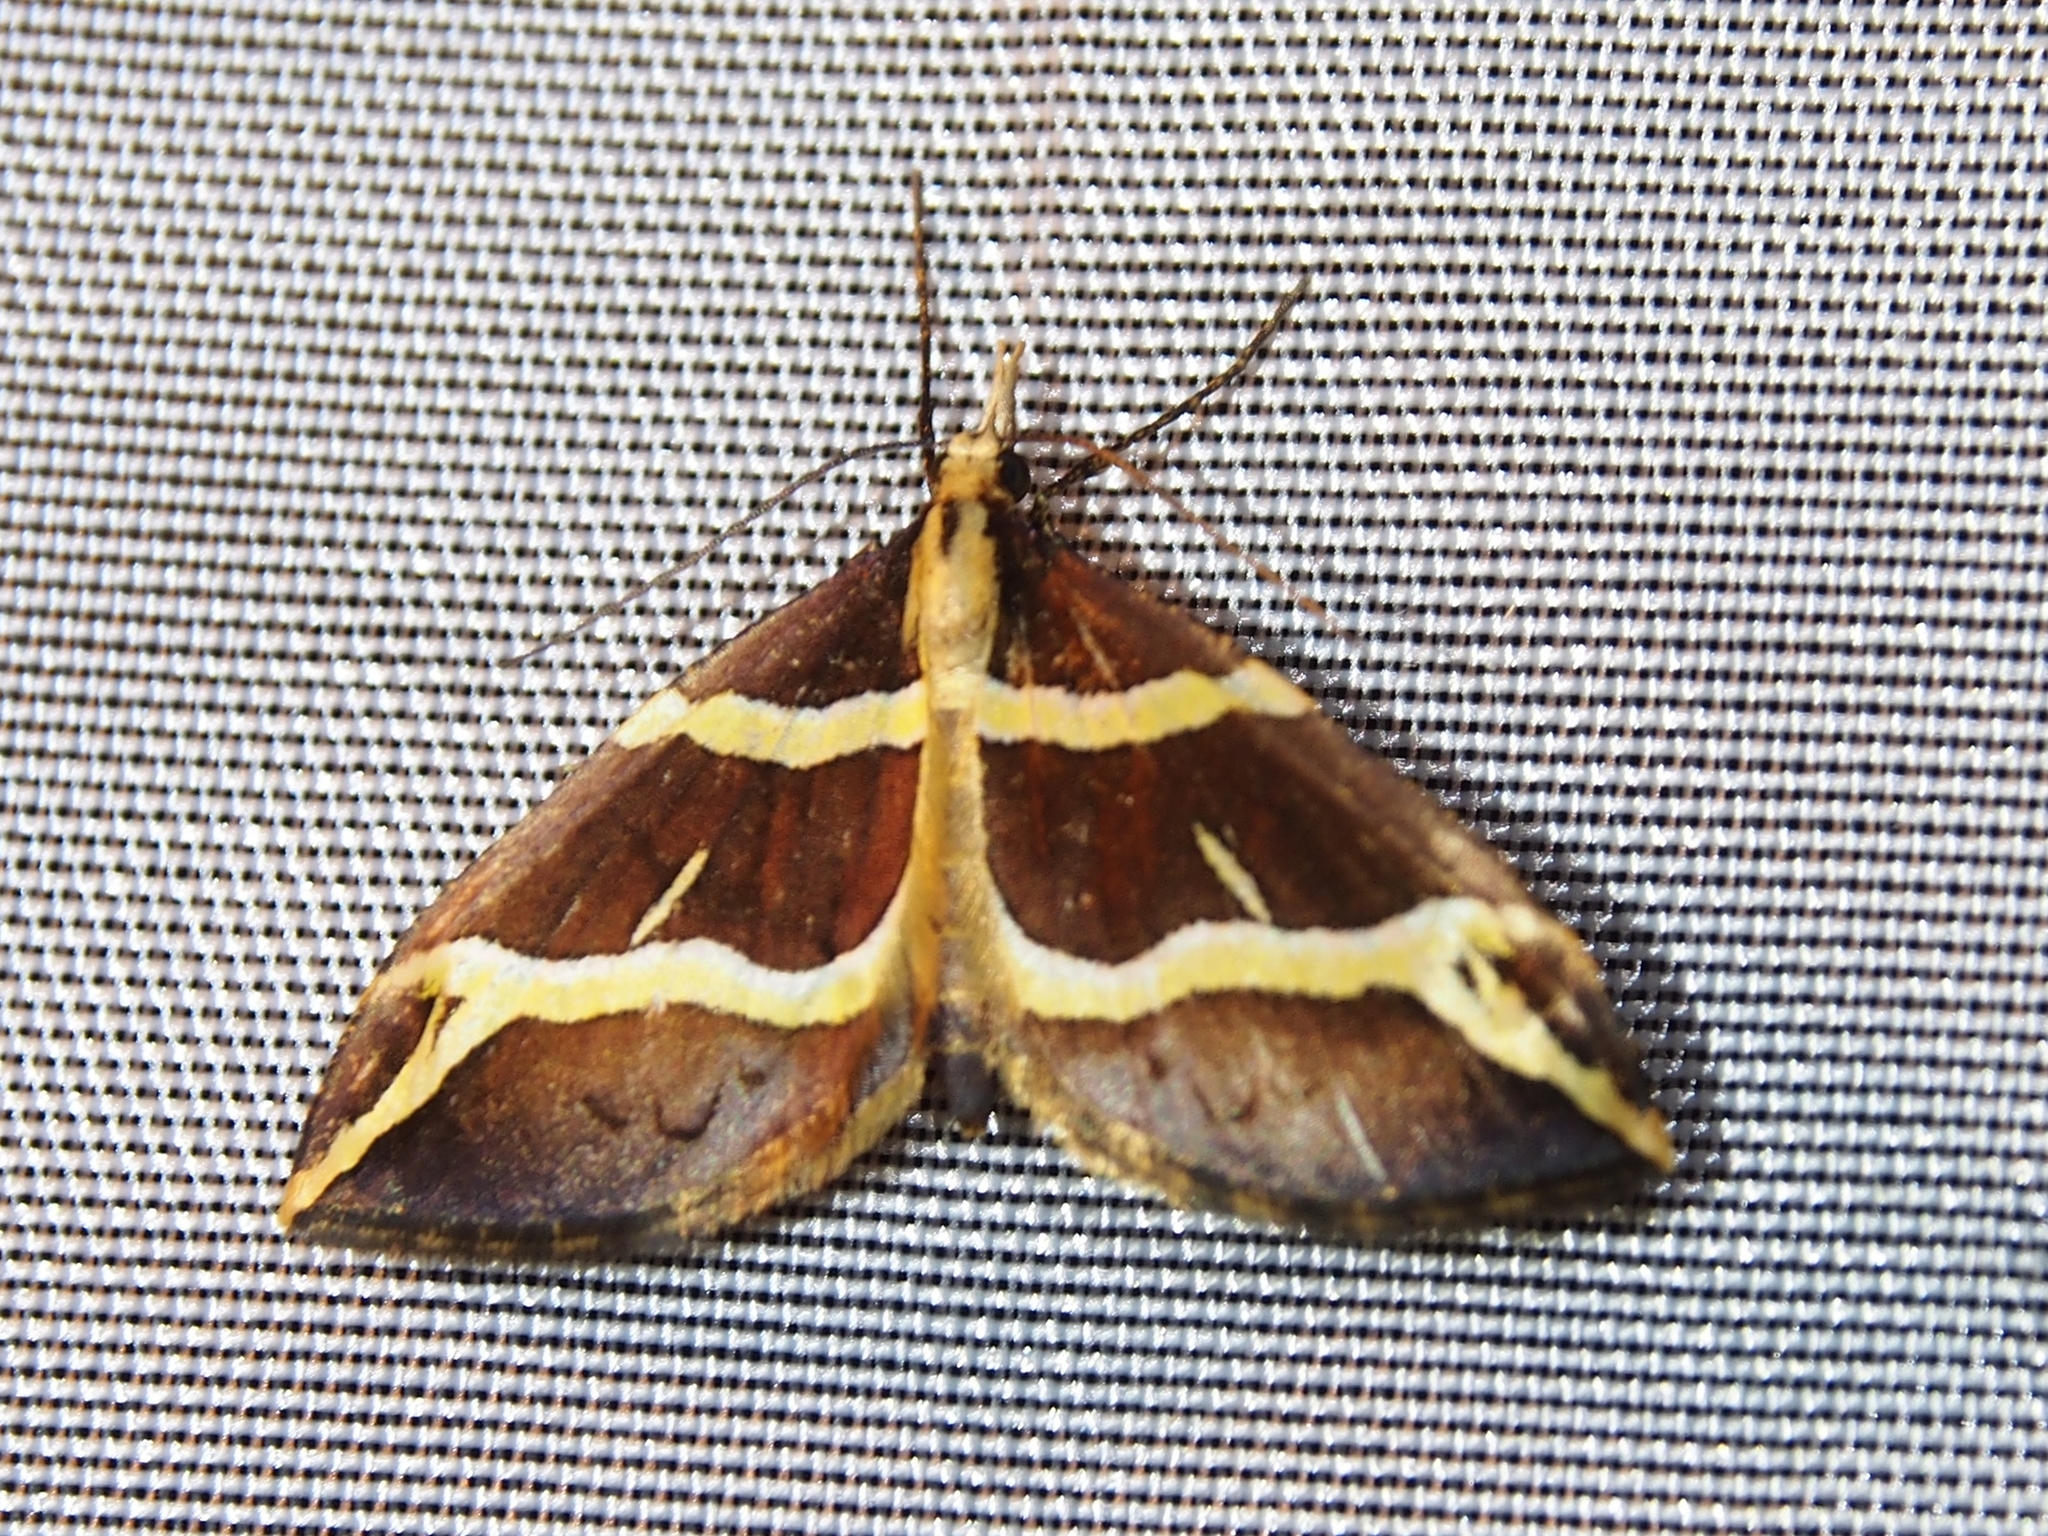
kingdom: Animalia
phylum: Arthropoda
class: Insecta
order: Lepidoptera
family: Geometridae
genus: Psaliodes
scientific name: Psaliodes samaniegoi
